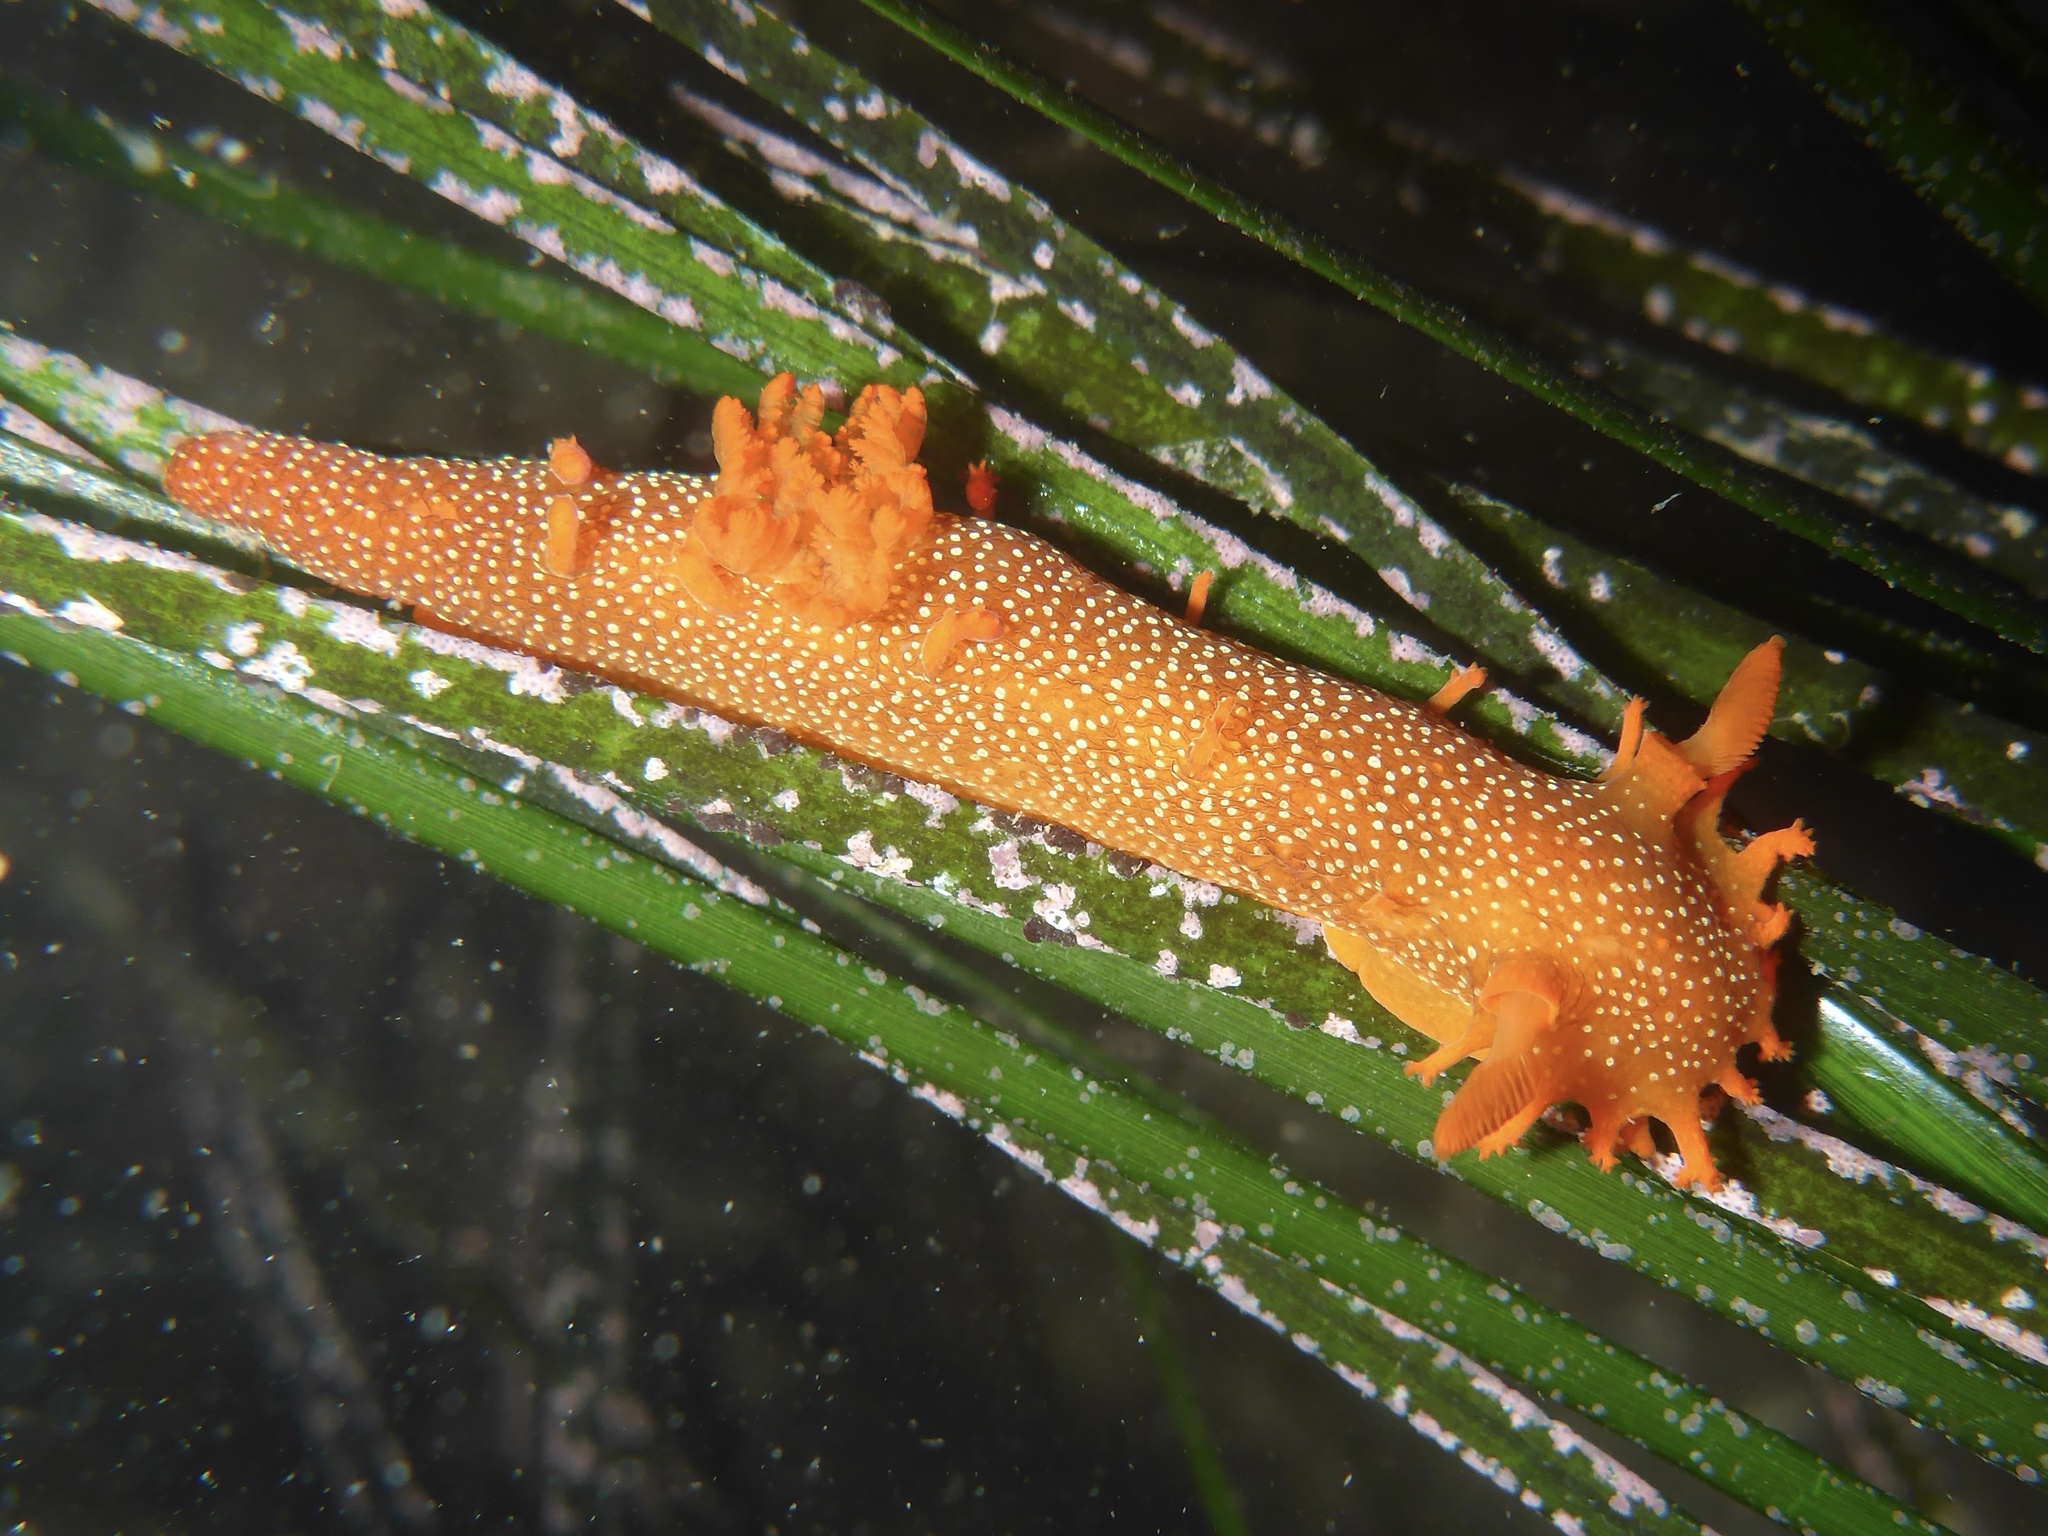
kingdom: Animalia
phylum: Mollusca
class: Gastropoda
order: Nudibranchia
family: Polyceridae
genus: Triopha
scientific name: Triopha maculata
